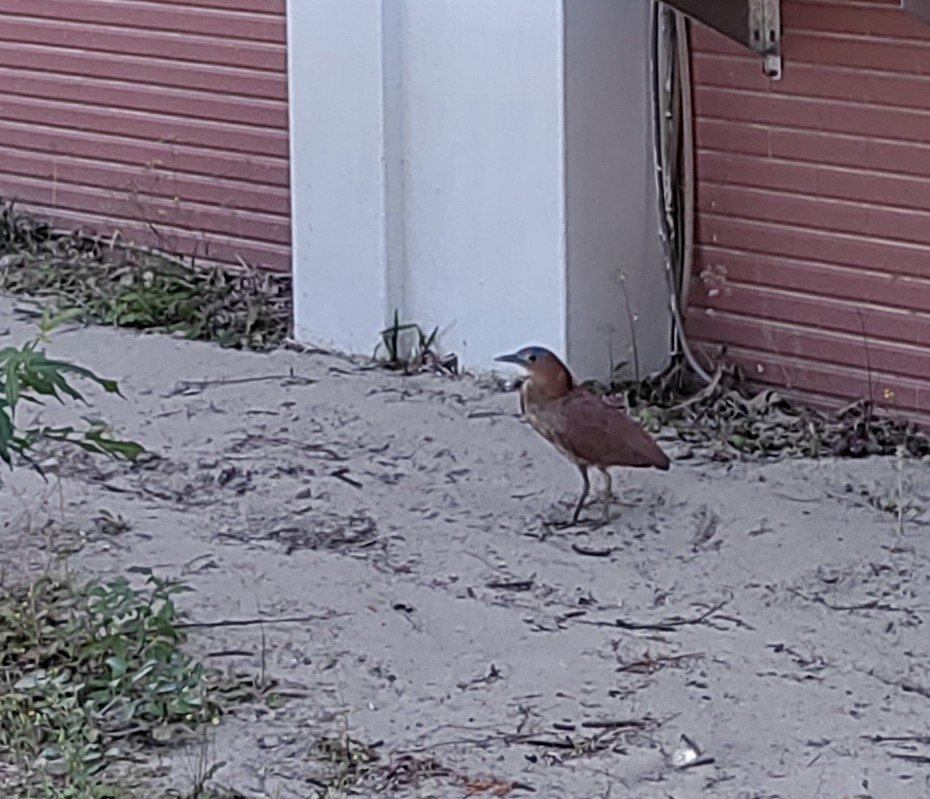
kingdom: Animalia
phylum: Chordata
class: Aves
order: Pelecaniformes
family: Ardeidae
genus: Gorsachius
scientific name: Gorsachius melanolophus
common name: Malayan night heron
